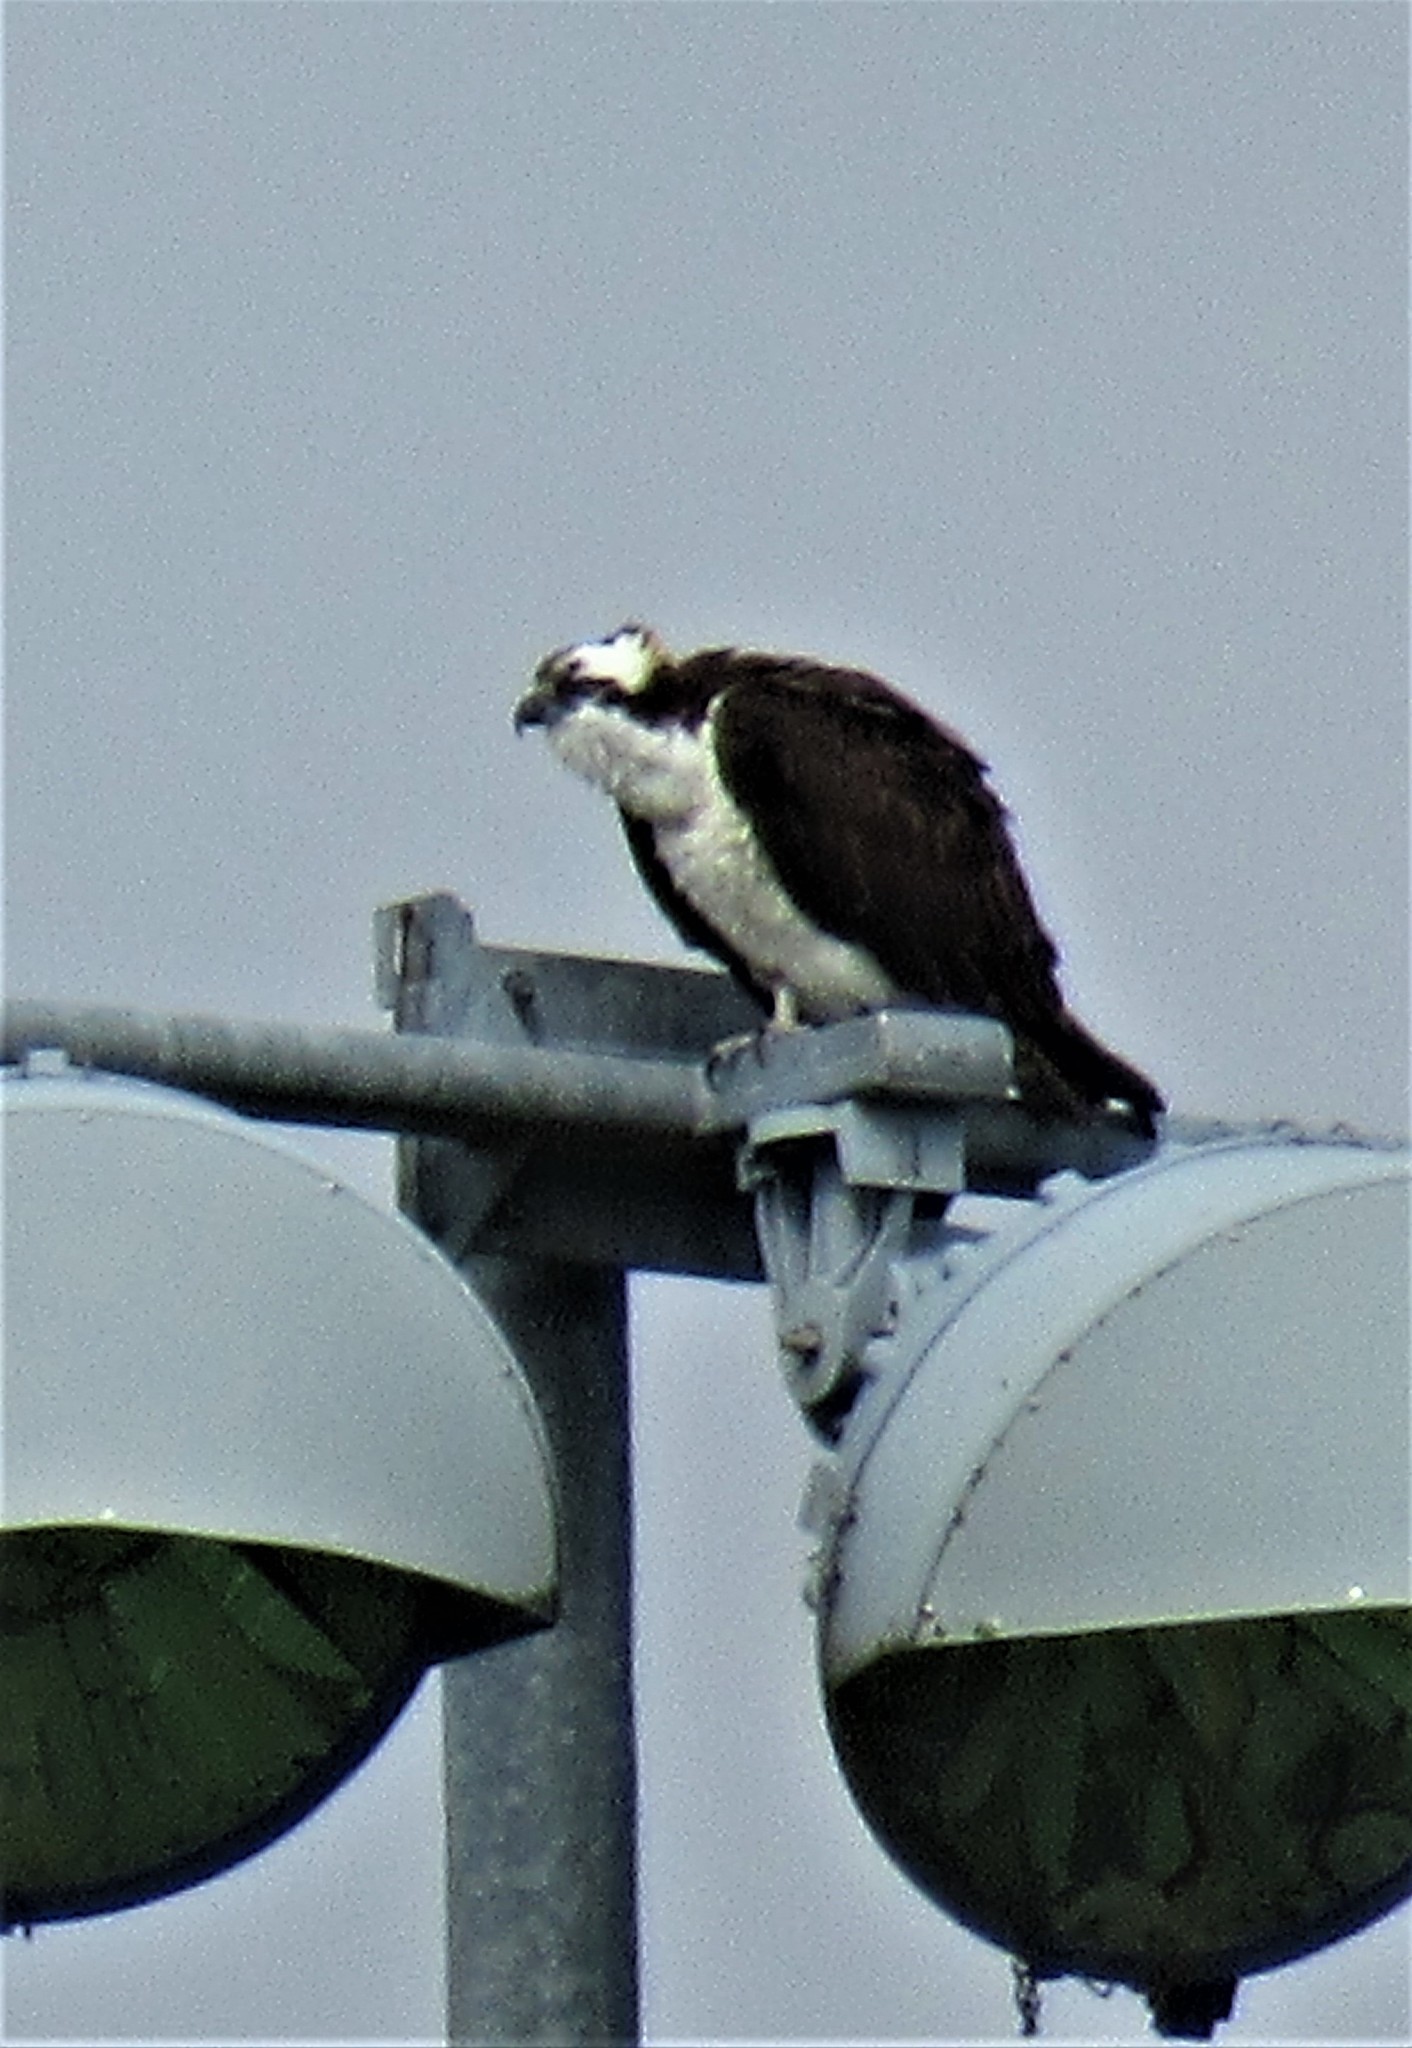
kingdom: Animalia
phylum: Chordata
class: Aves
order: Accipitriformes
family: Pandionidae
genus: Pandion
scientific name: Pandion haliaetus
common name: Osprey
